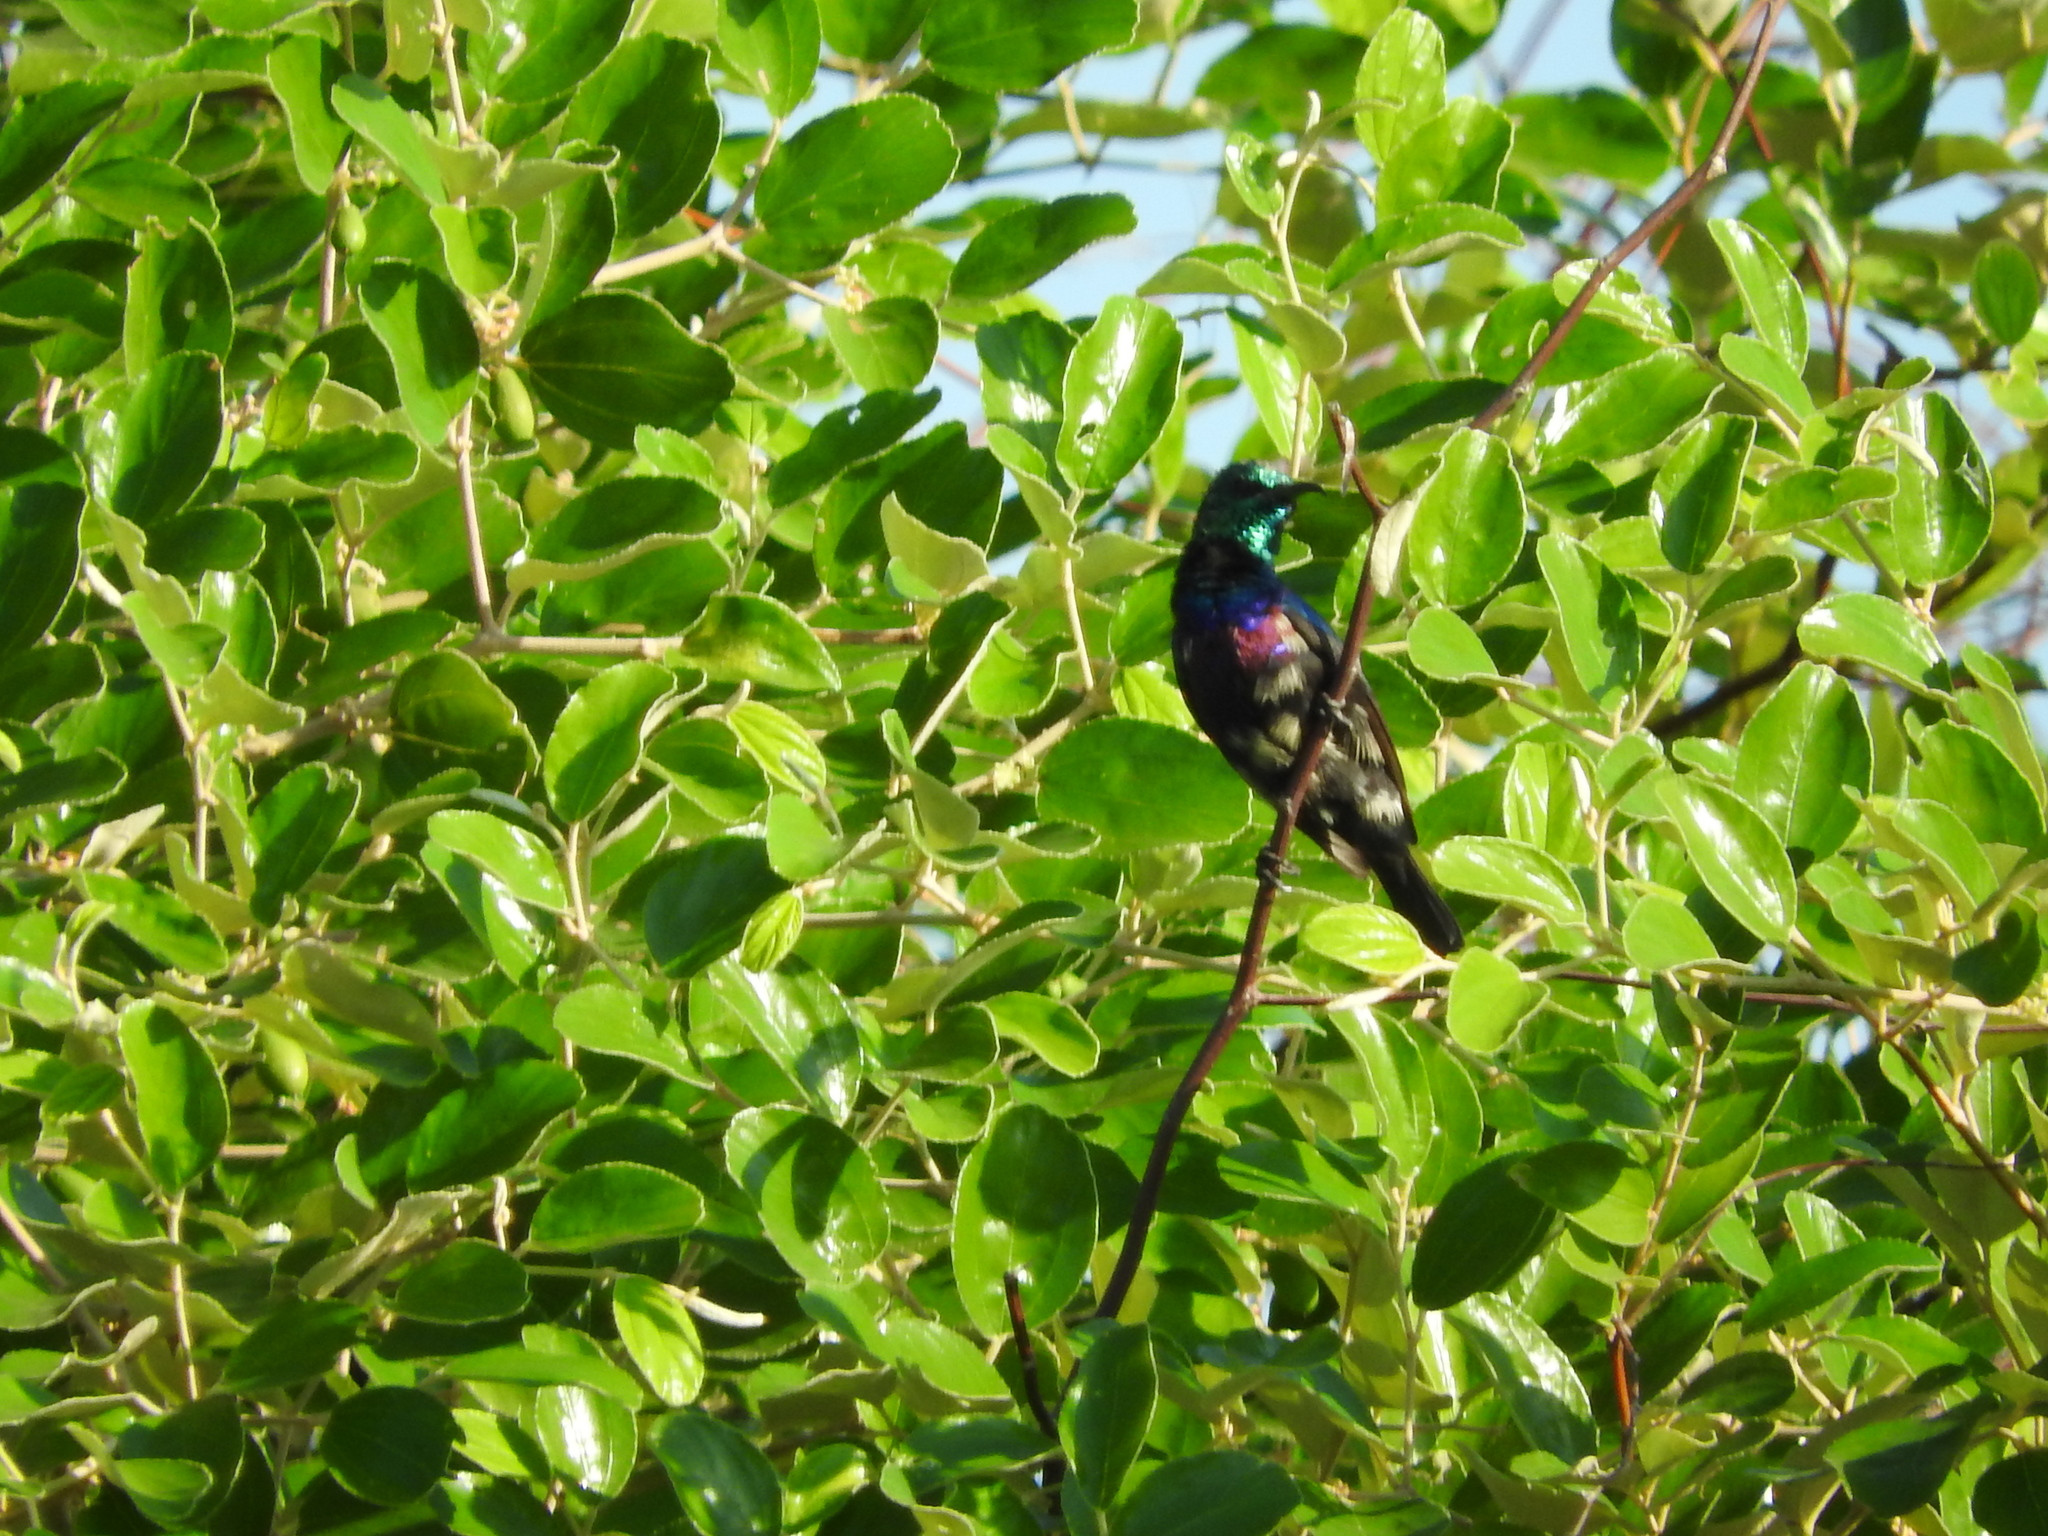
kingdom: Animalia
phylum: Chordata
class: Aves
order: Passeriformes
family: Nectariniidae
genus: Cinnyris
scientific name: Cinnyris bifasciatus
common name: Purple-banded sunbird
